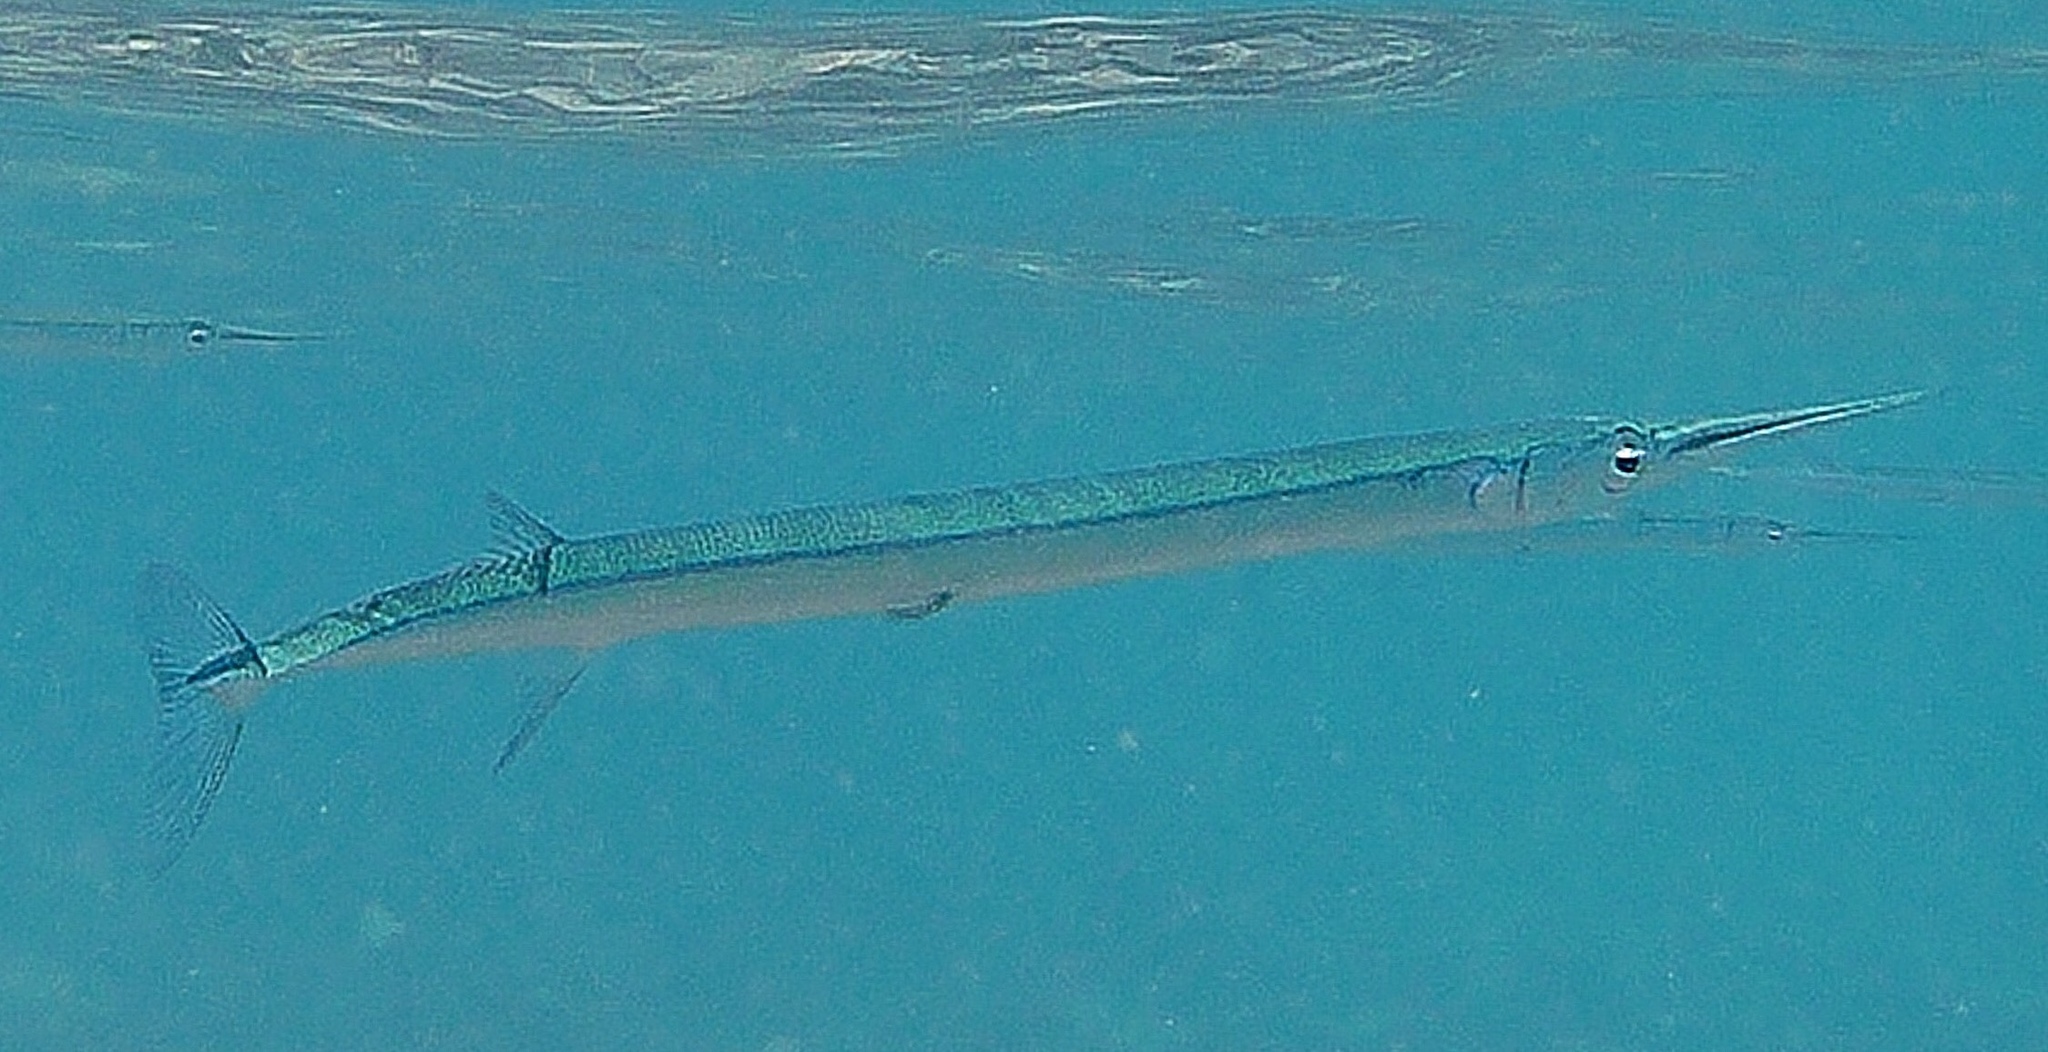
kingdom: Animalia
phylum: Chordata
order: Beloniformes
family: Belonidae
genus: Tylosurus
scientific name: Tylosurus crocodilus
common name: Houndfish
